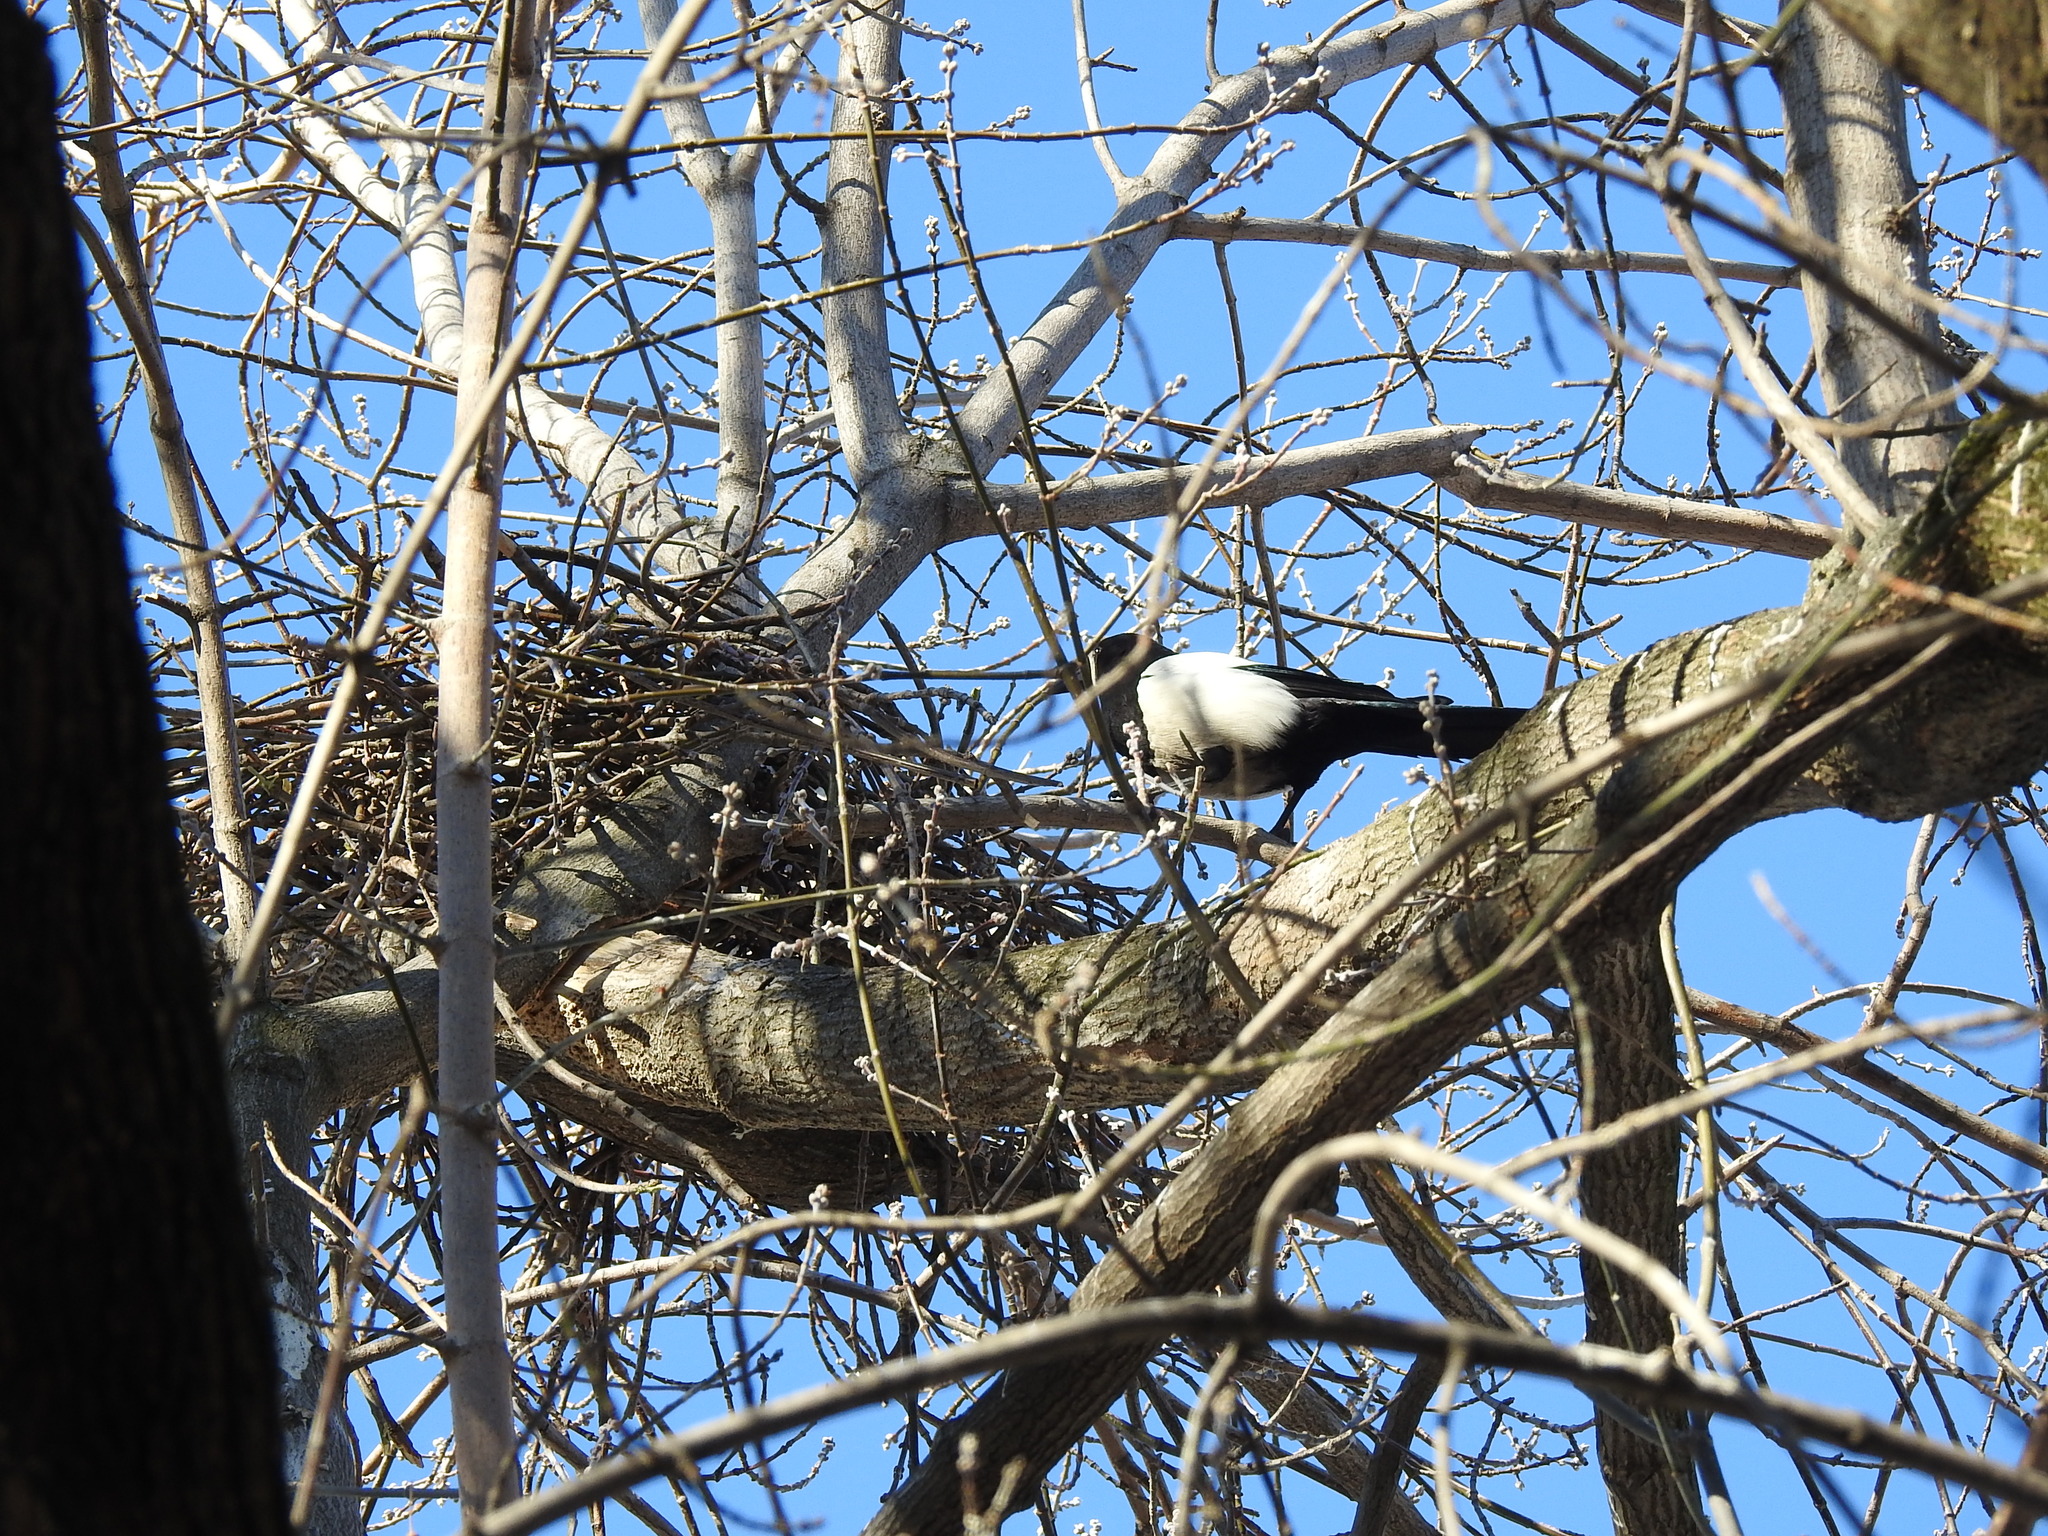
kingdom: Animalia
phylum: Chordata
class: Aves
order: Passeriformes
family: Corvidae
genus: Pica
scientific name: Pica pica
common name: Eurasian magpie
